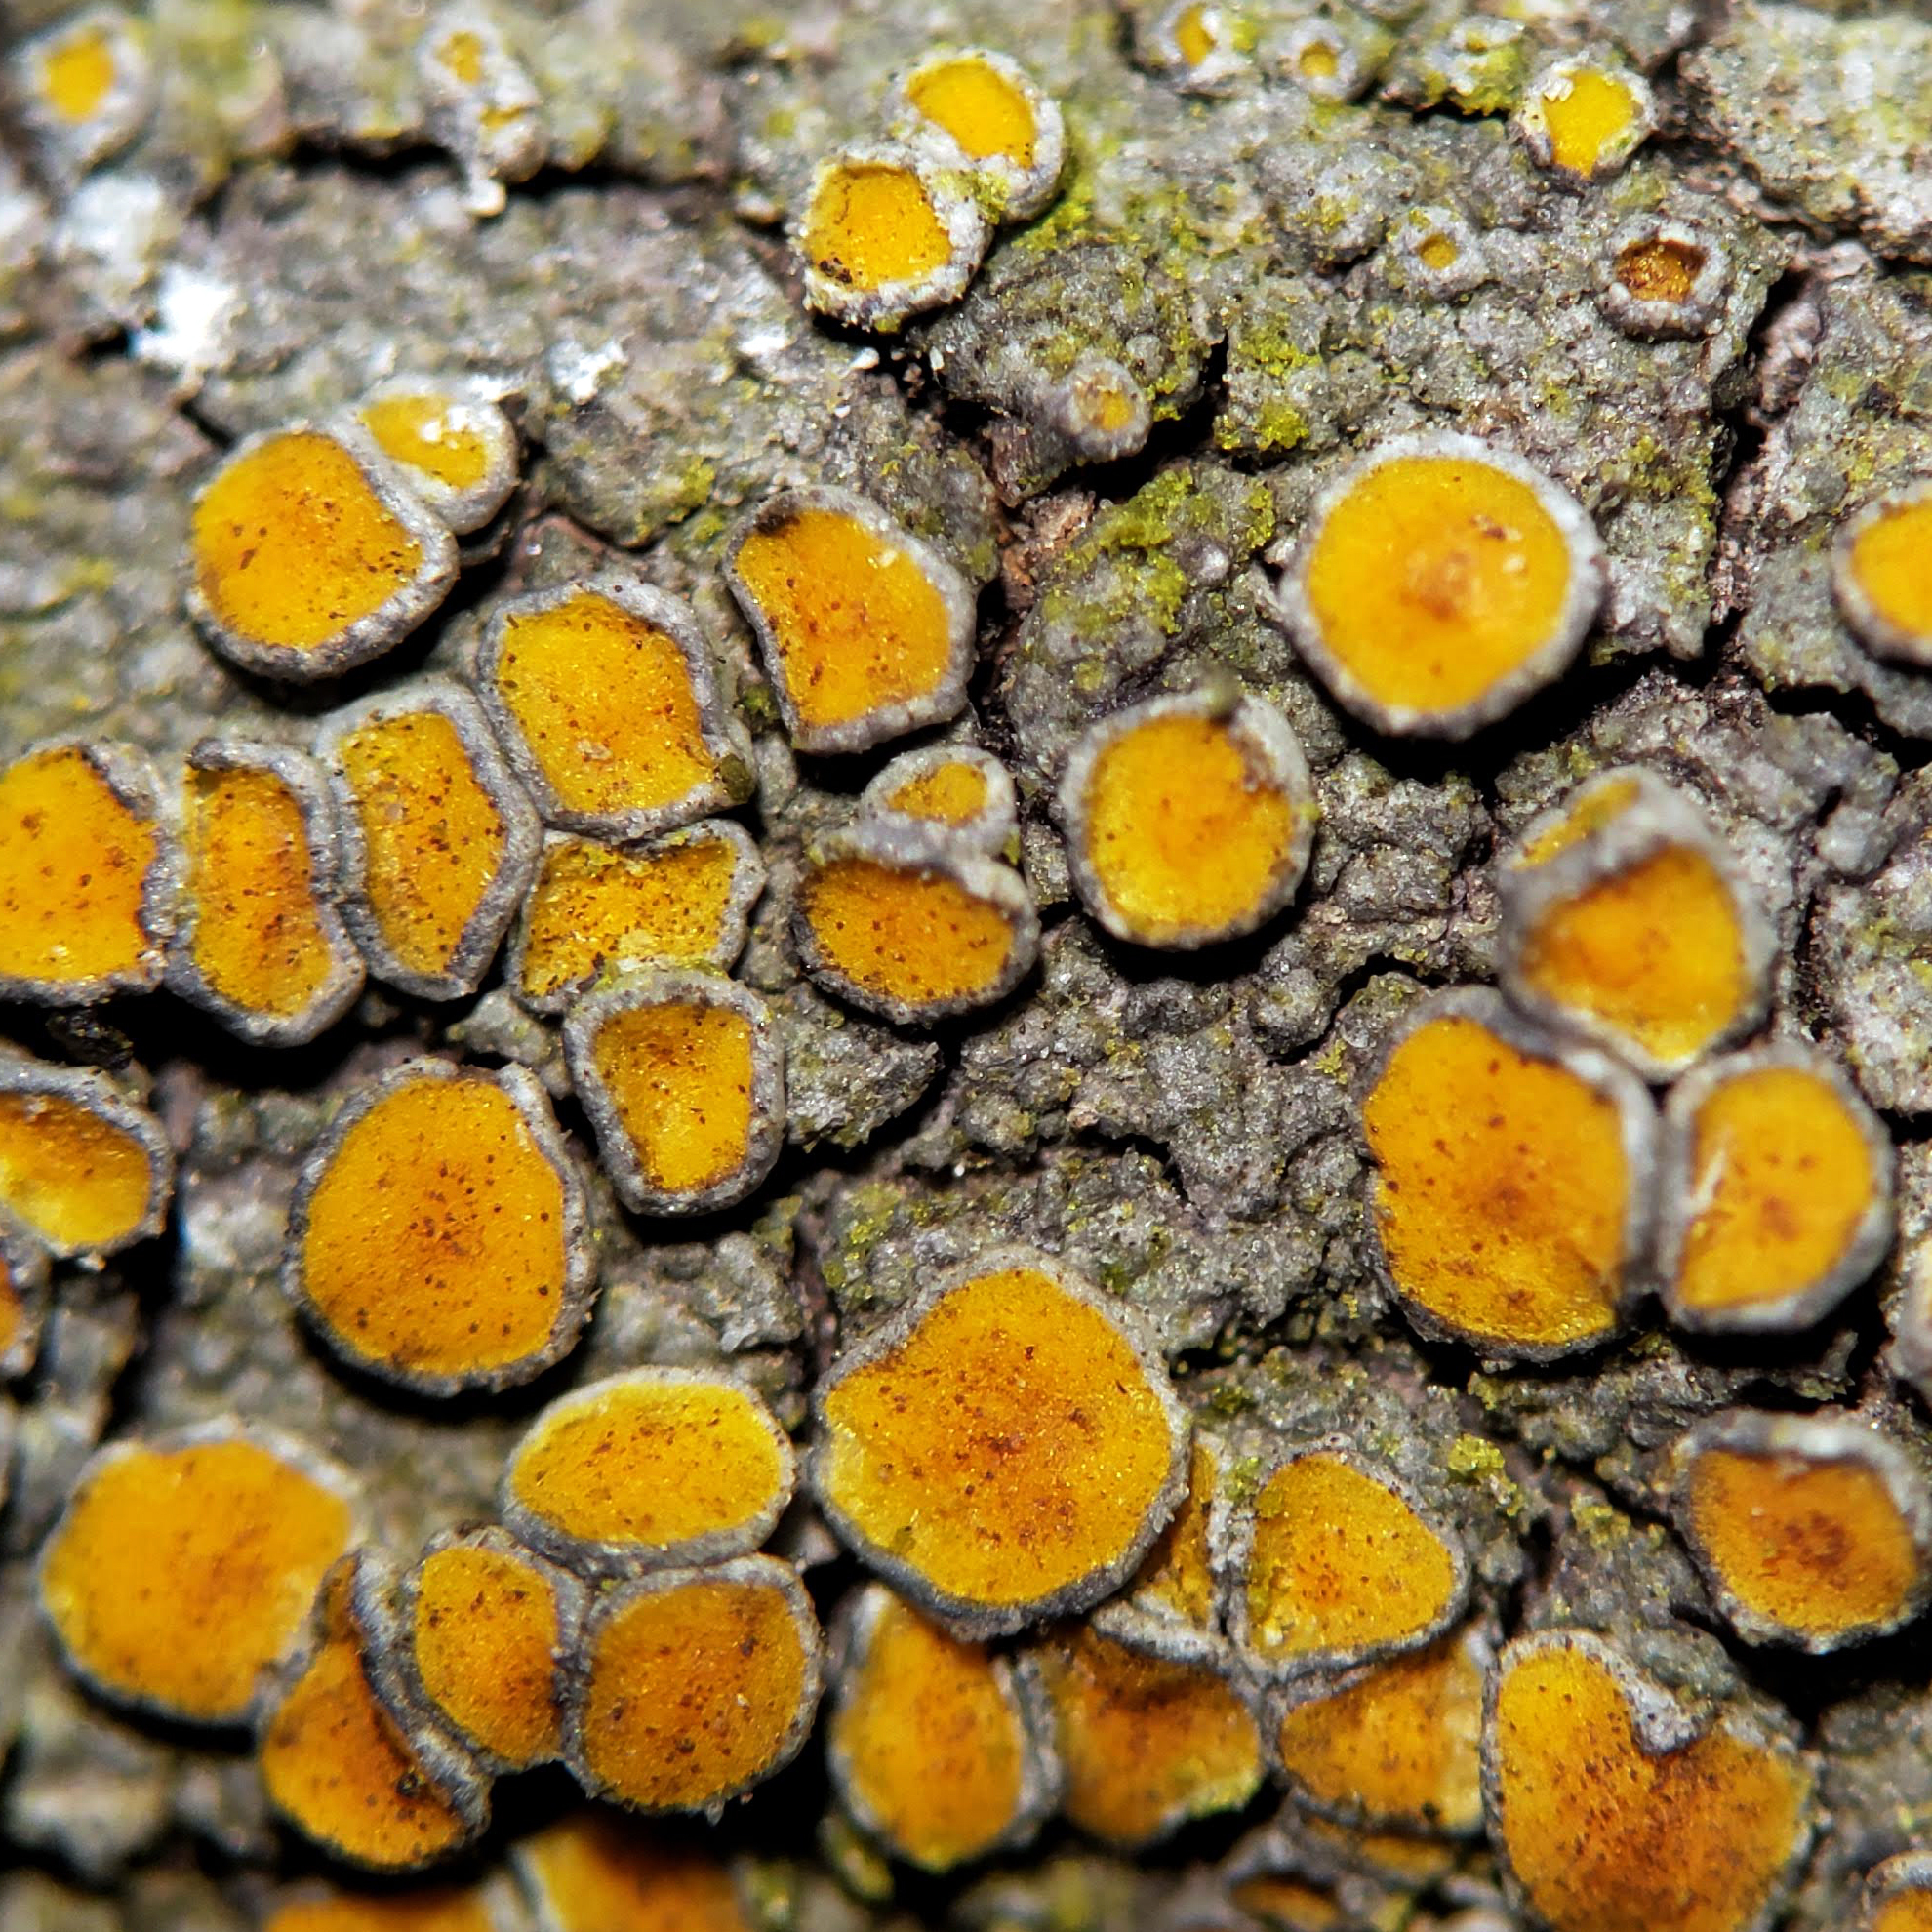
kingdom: Fungi
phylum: Ascomycota
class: Lecanoromycetes
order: Teloschistales
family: Teloschistaceae
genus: Caloplaca
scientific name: Caloplaca cerina
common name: Gray-rimmed firedot lichen
